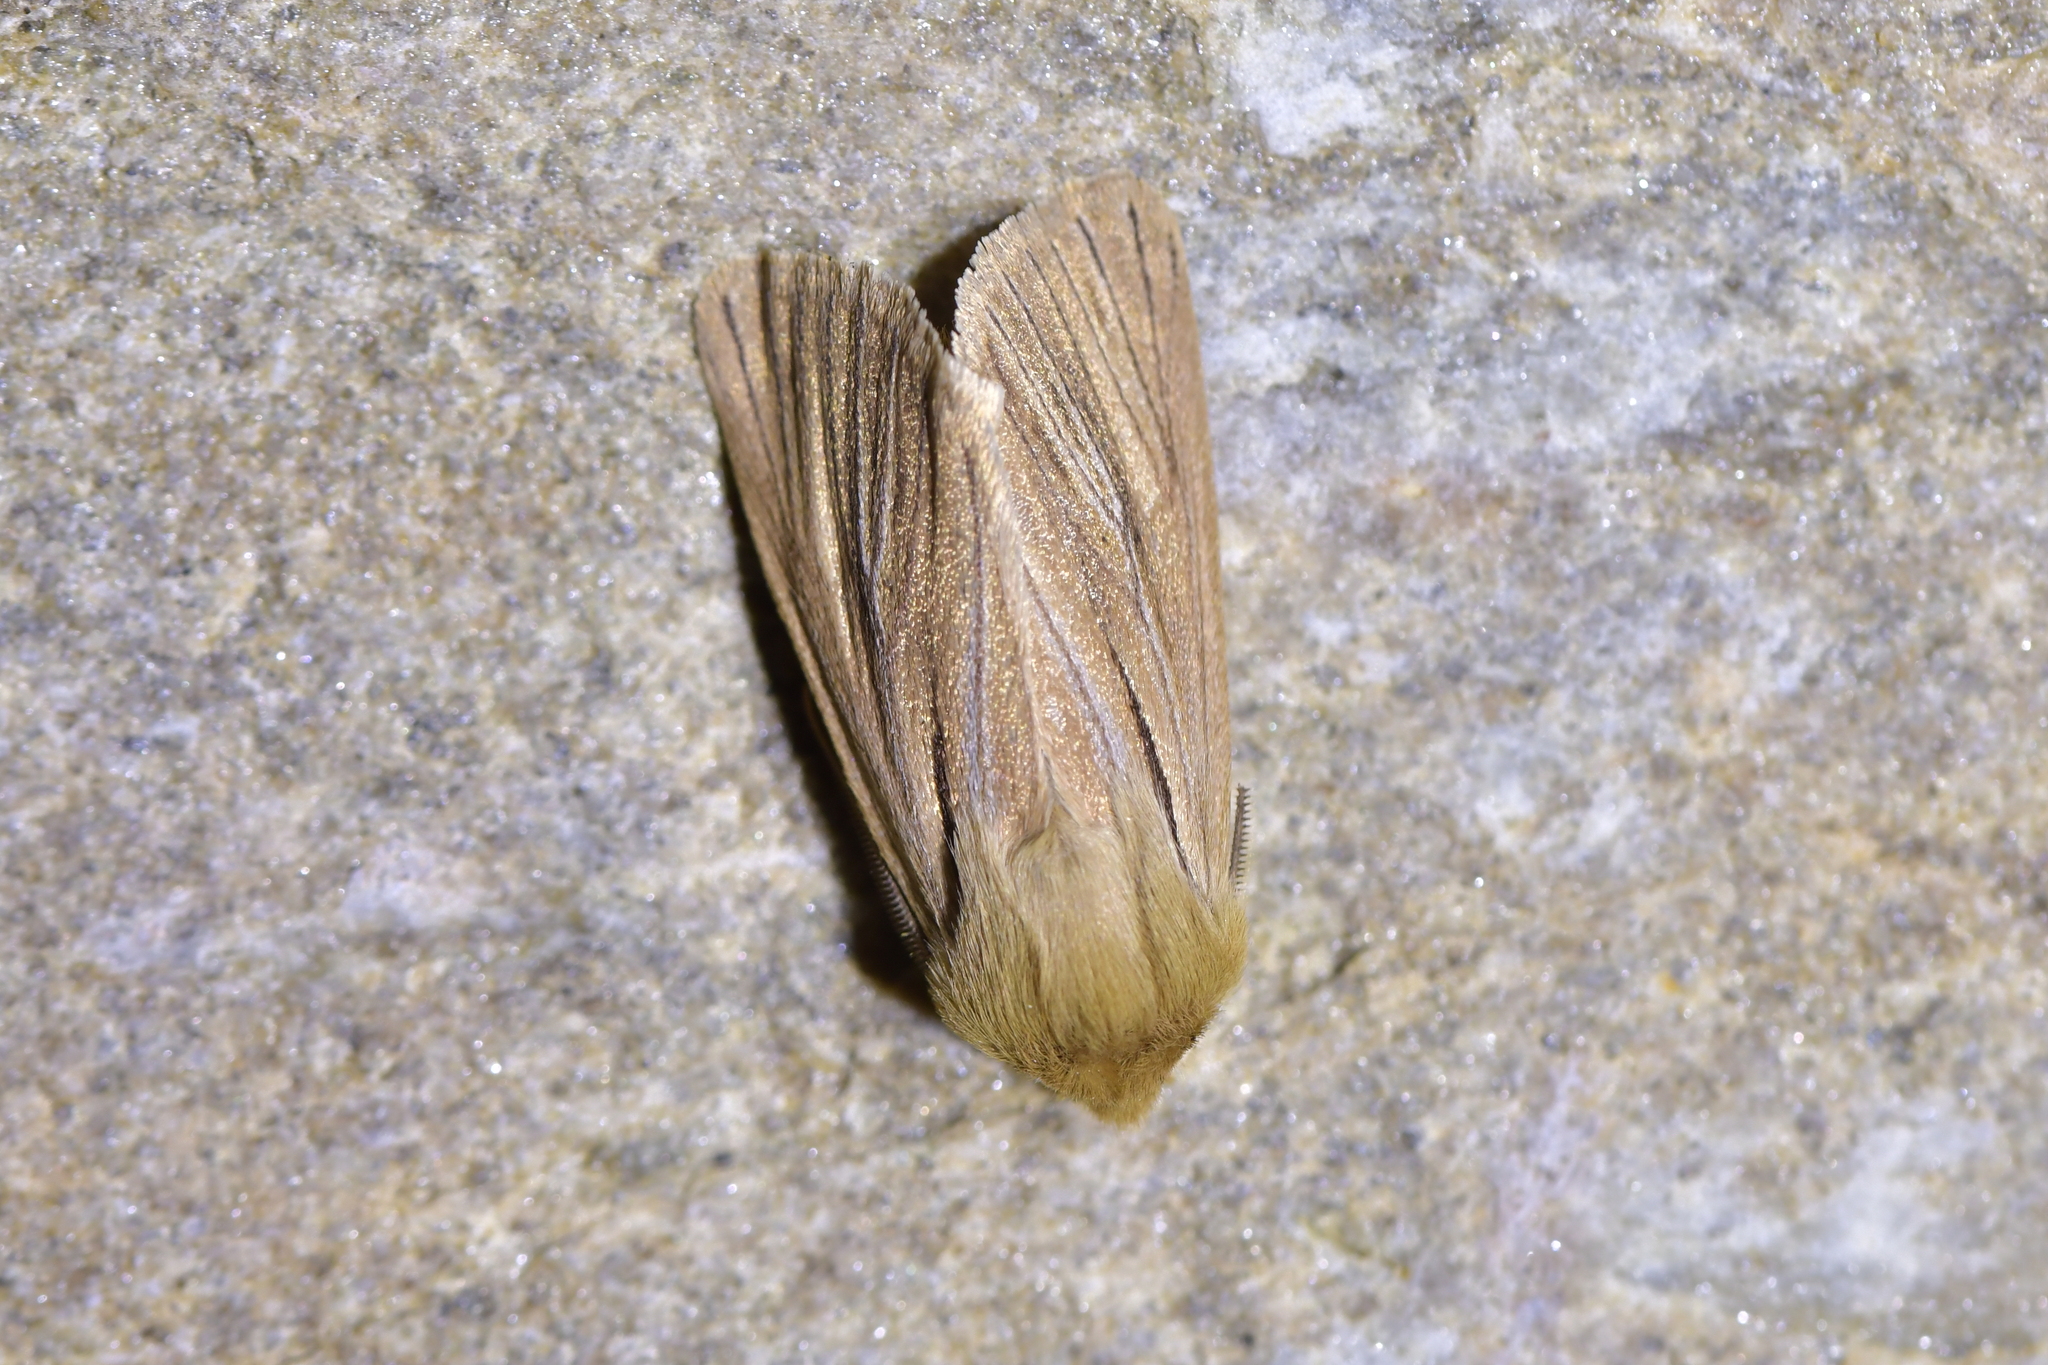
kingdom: Animalia
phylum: Arthropoda
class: Insecta
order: Lepidoptera
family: Noctuidae
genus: Ichneutica
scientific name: Ichneutica
